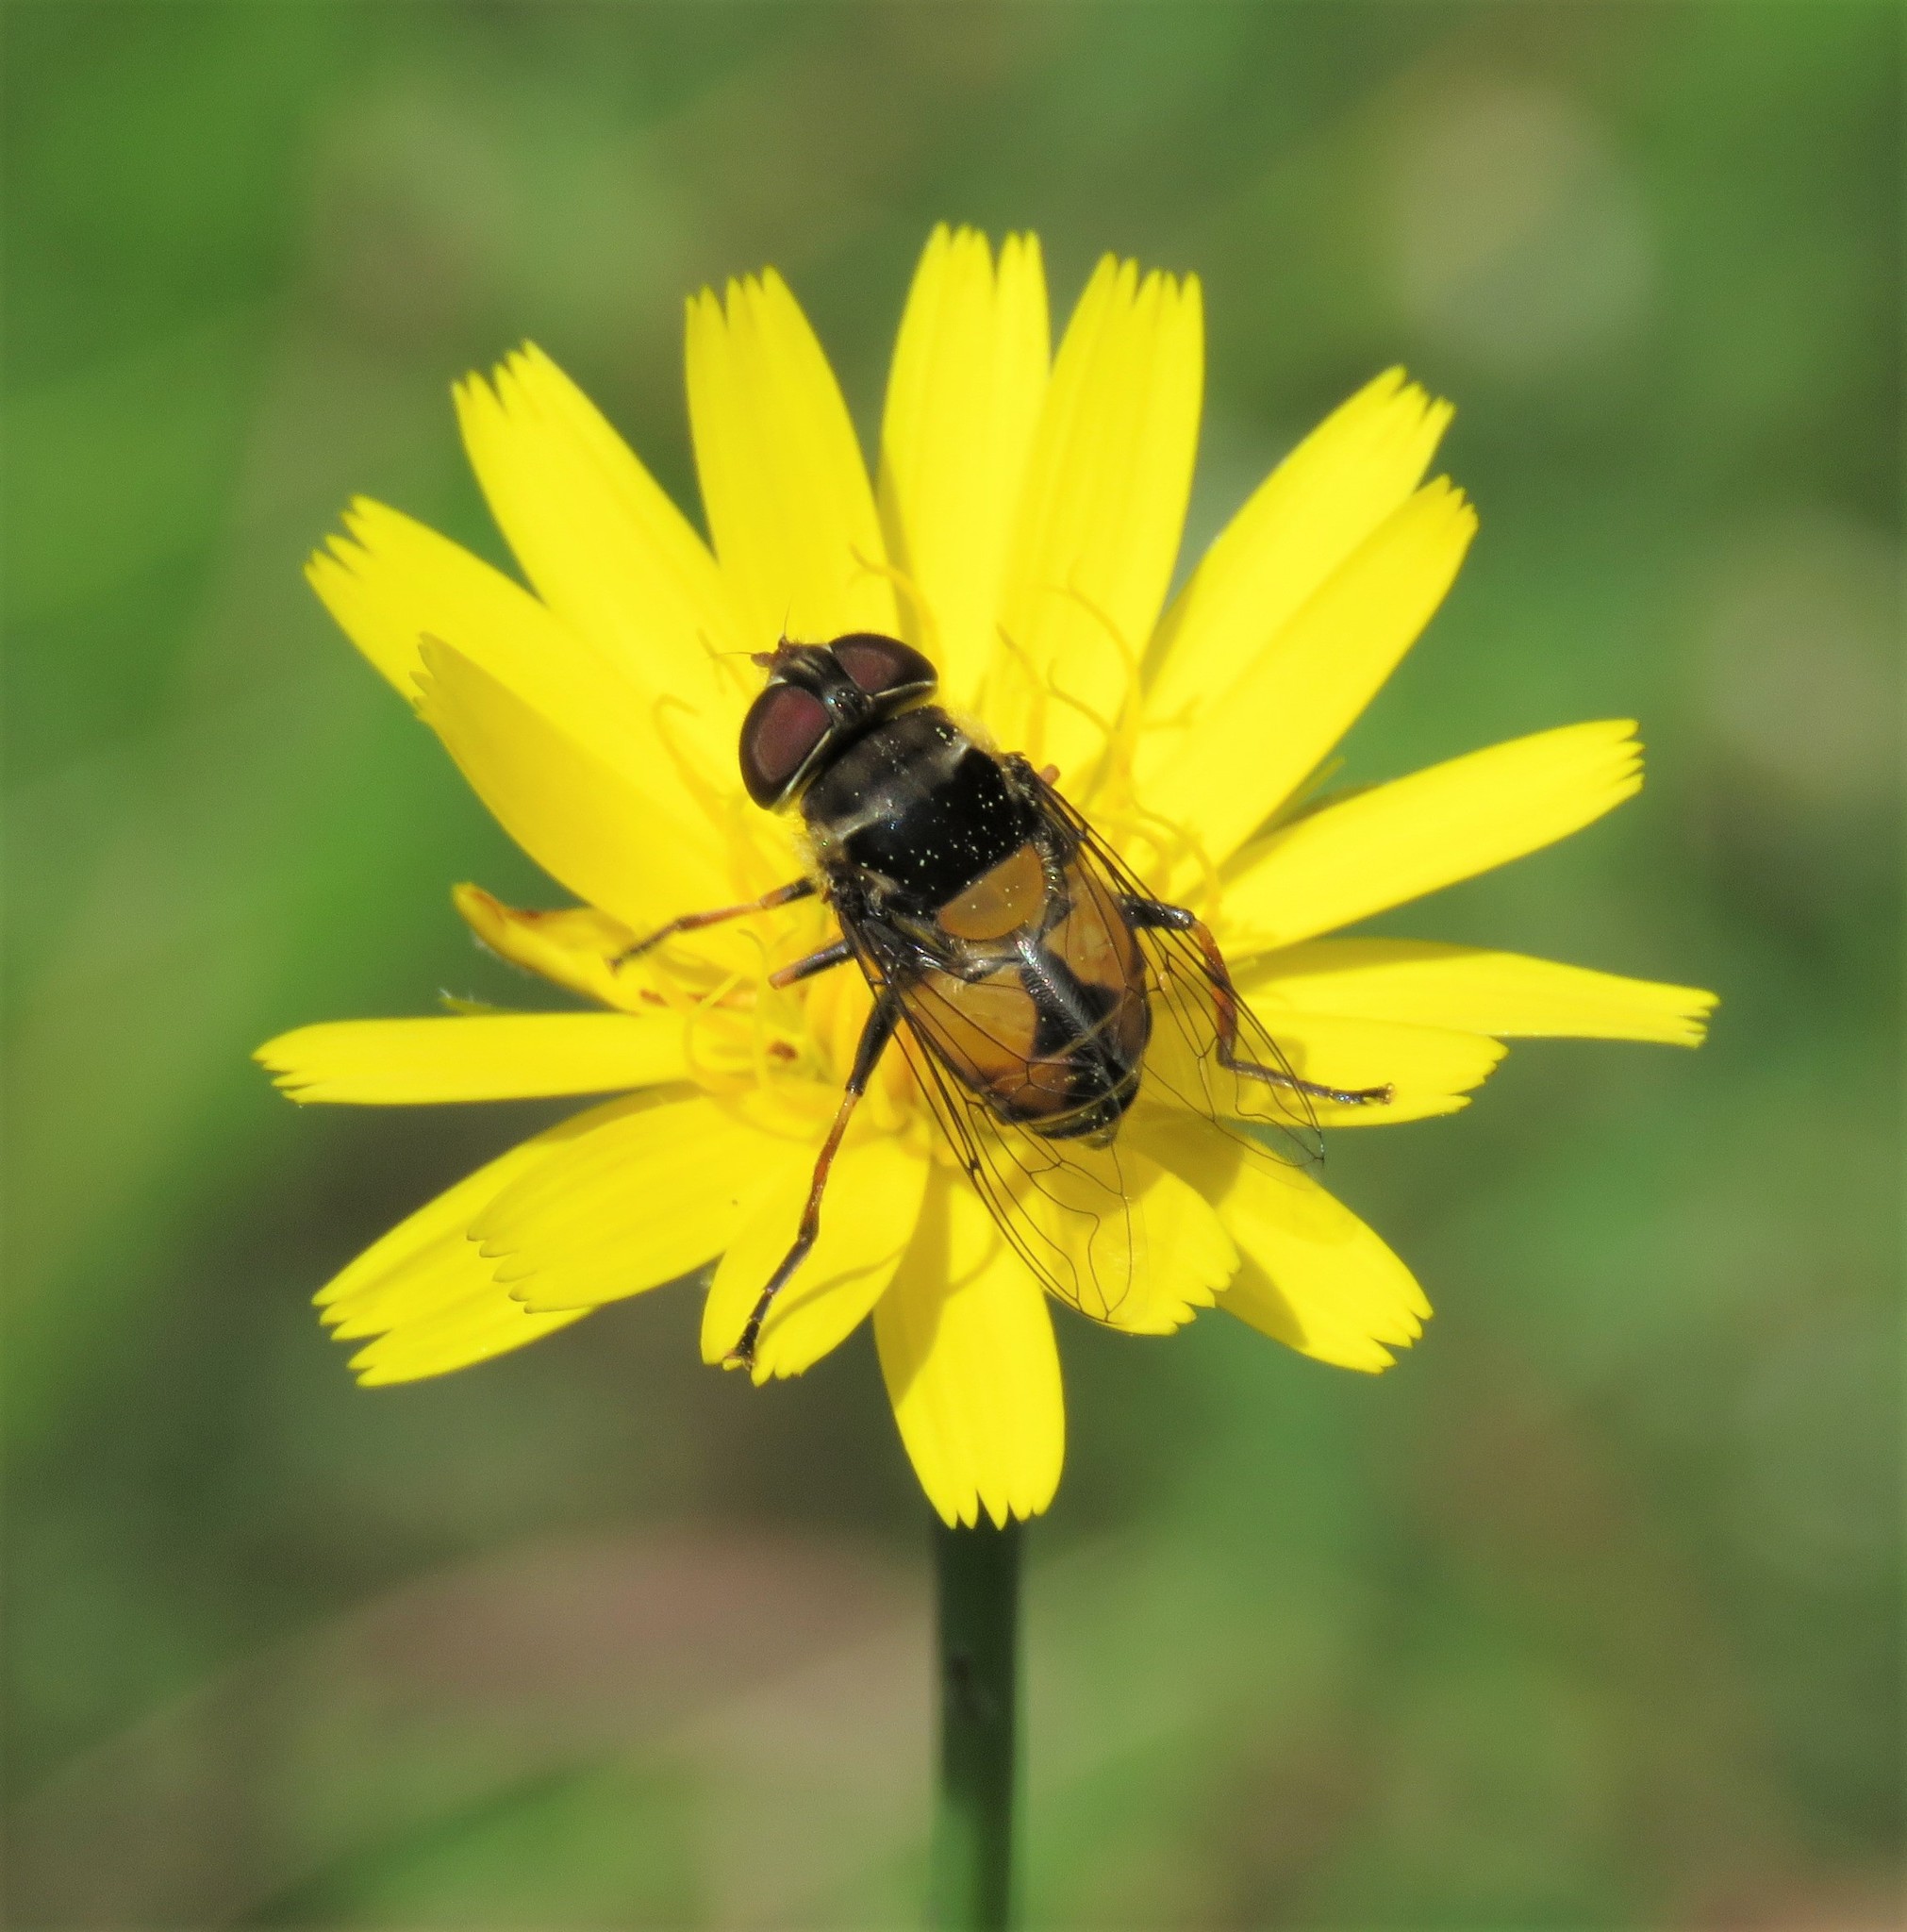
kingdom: Plantae
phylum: Tracheophyta
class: Magnoliopsida
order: Asterales
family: Asteraceae
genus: Hypochaeris
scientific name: Hypochaeris radicata
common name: Flatweed
